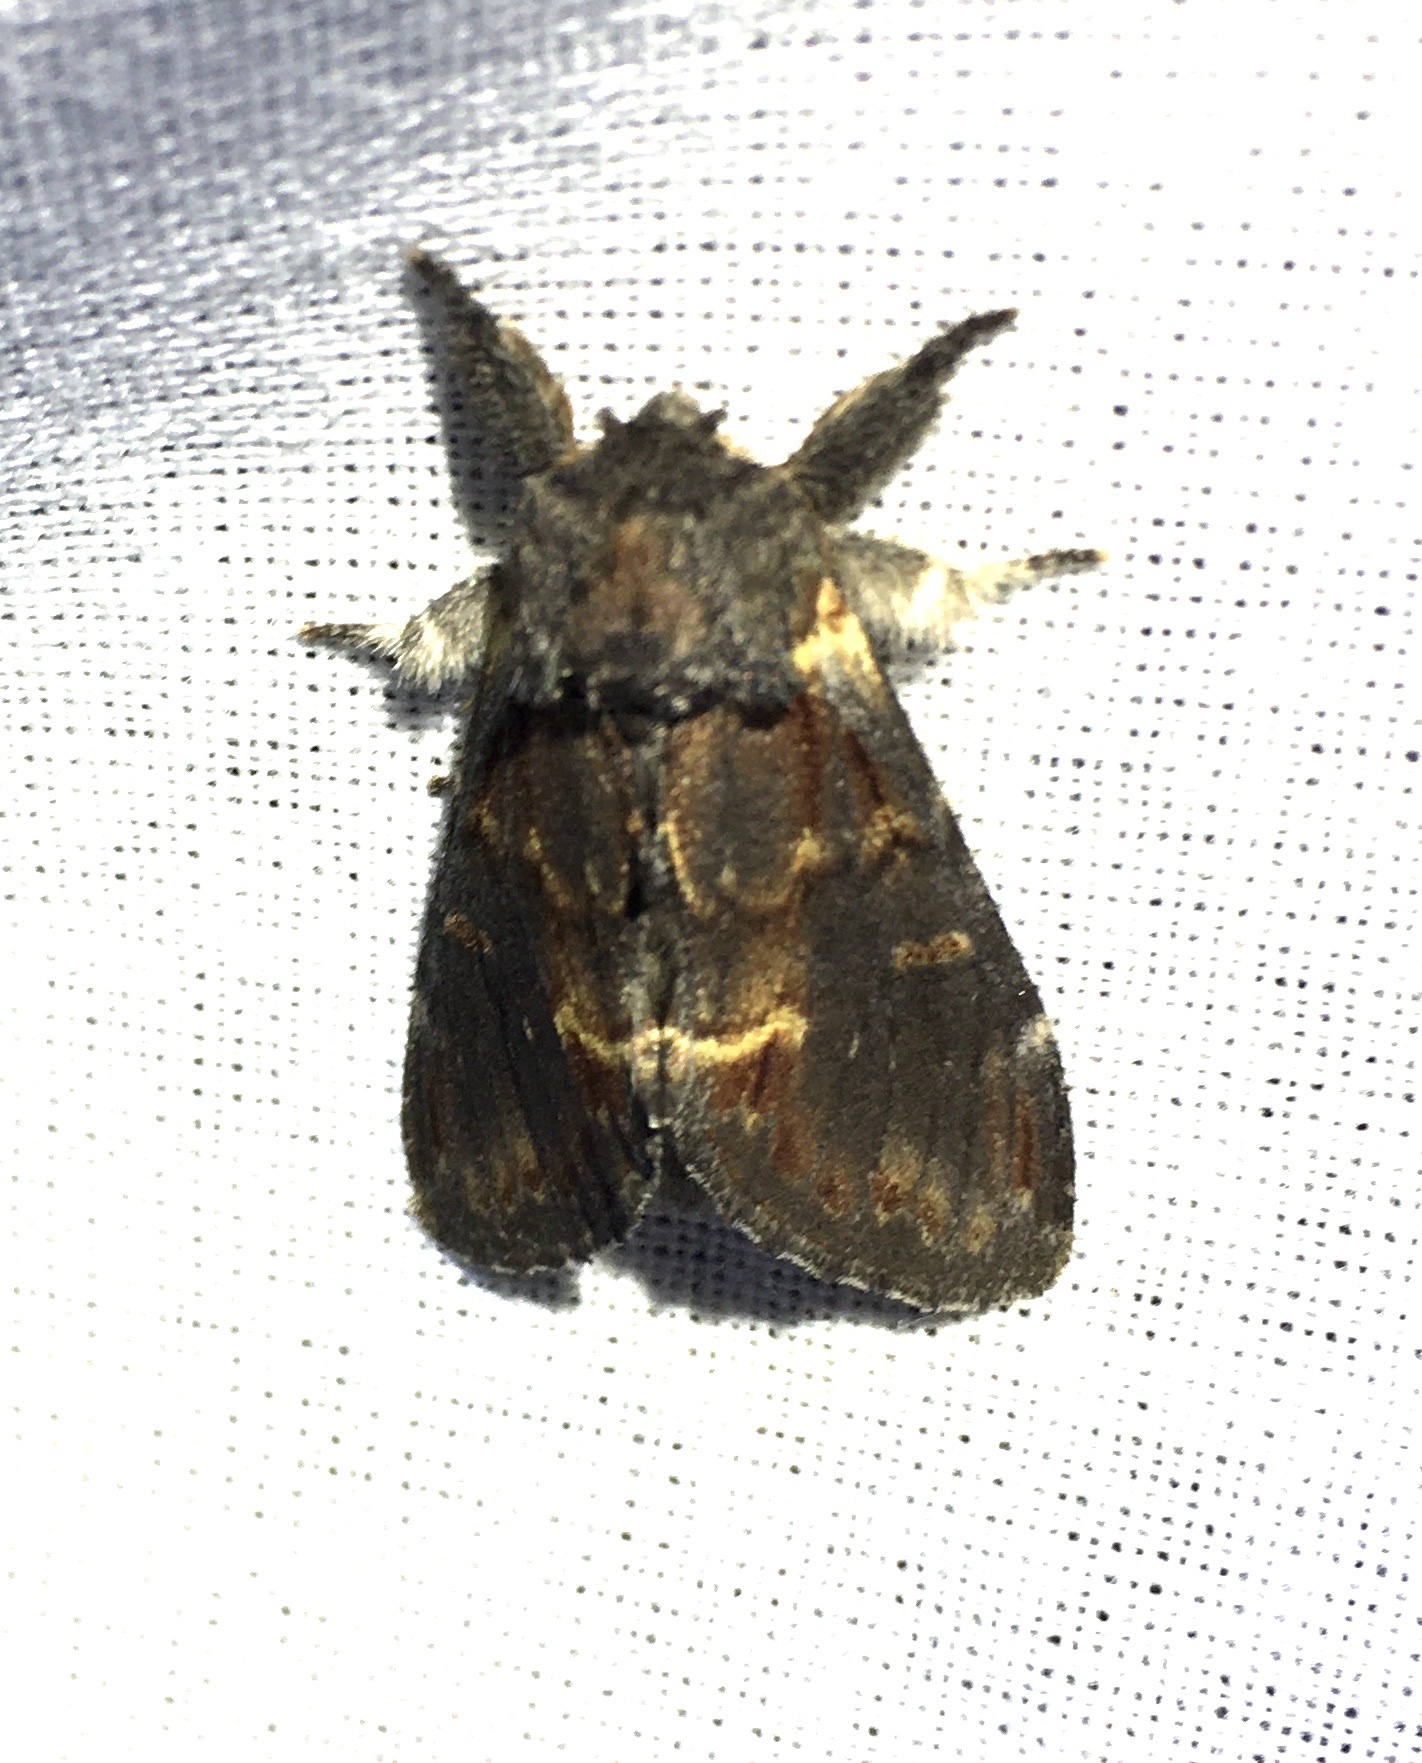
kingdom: Animalia
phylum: Arthropoda
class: Insecta
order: Lepidoptera
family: Notodontidae
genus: Notodonta
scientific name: Notodonta dromedarius
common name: Iron prominent
